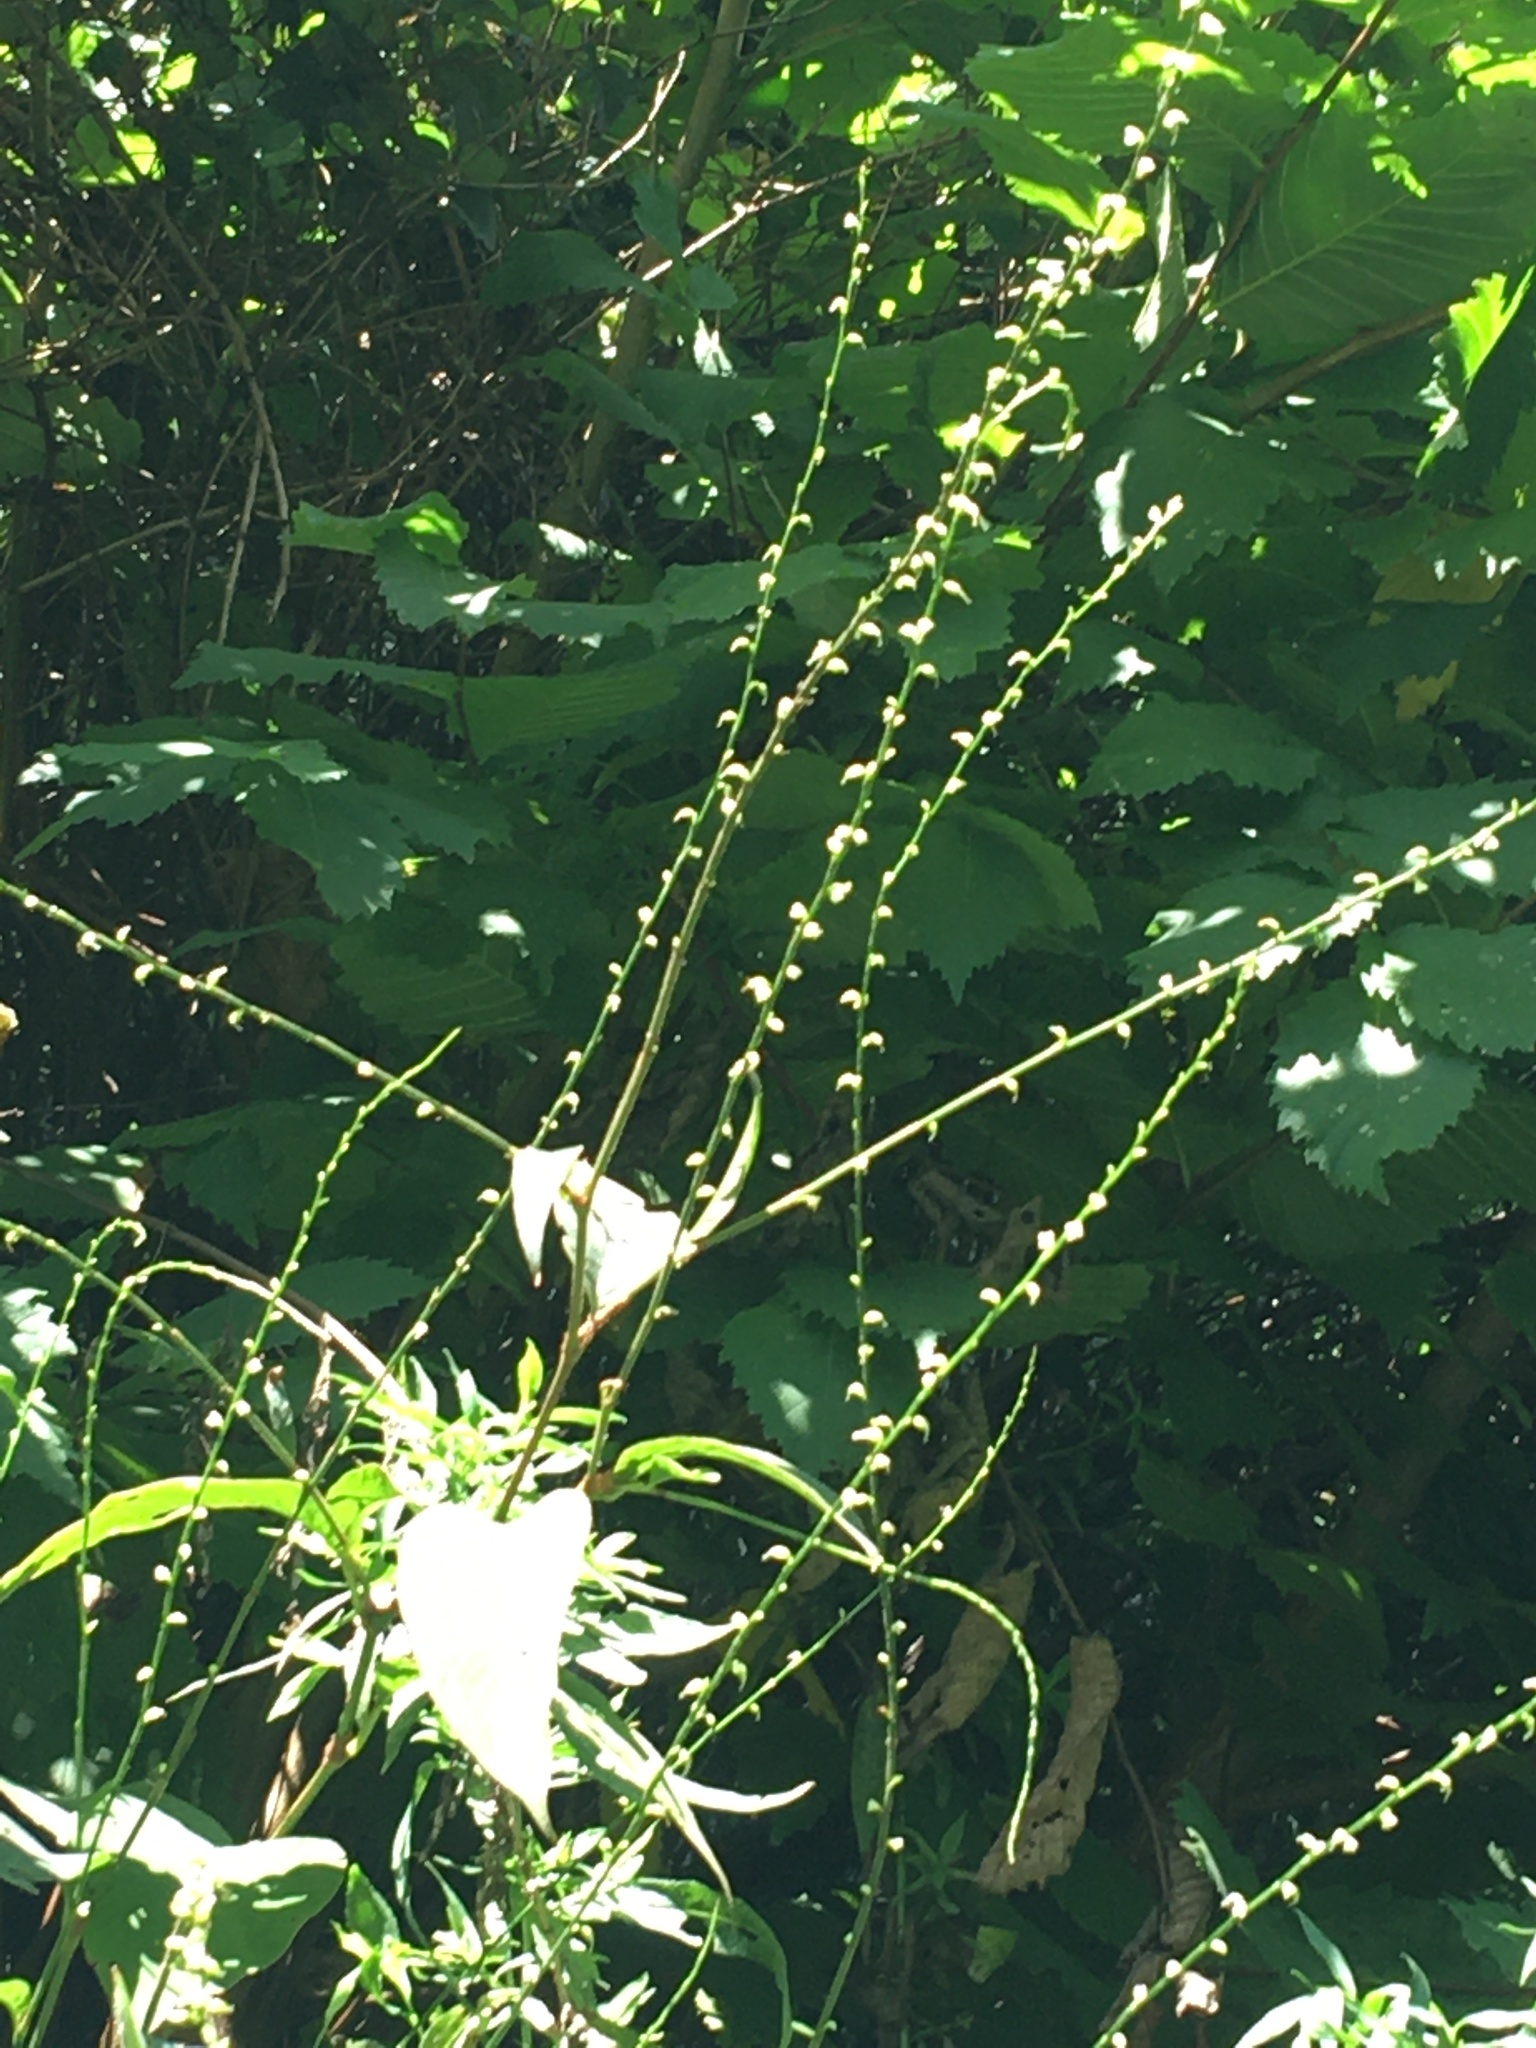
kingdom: Plantae
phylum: Tracheophyta
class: Magnoliopsida
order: Caryophyllales
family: Polygonaceae
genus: Persicaria
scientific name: Persicaria virginiana
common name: Jumpseed
